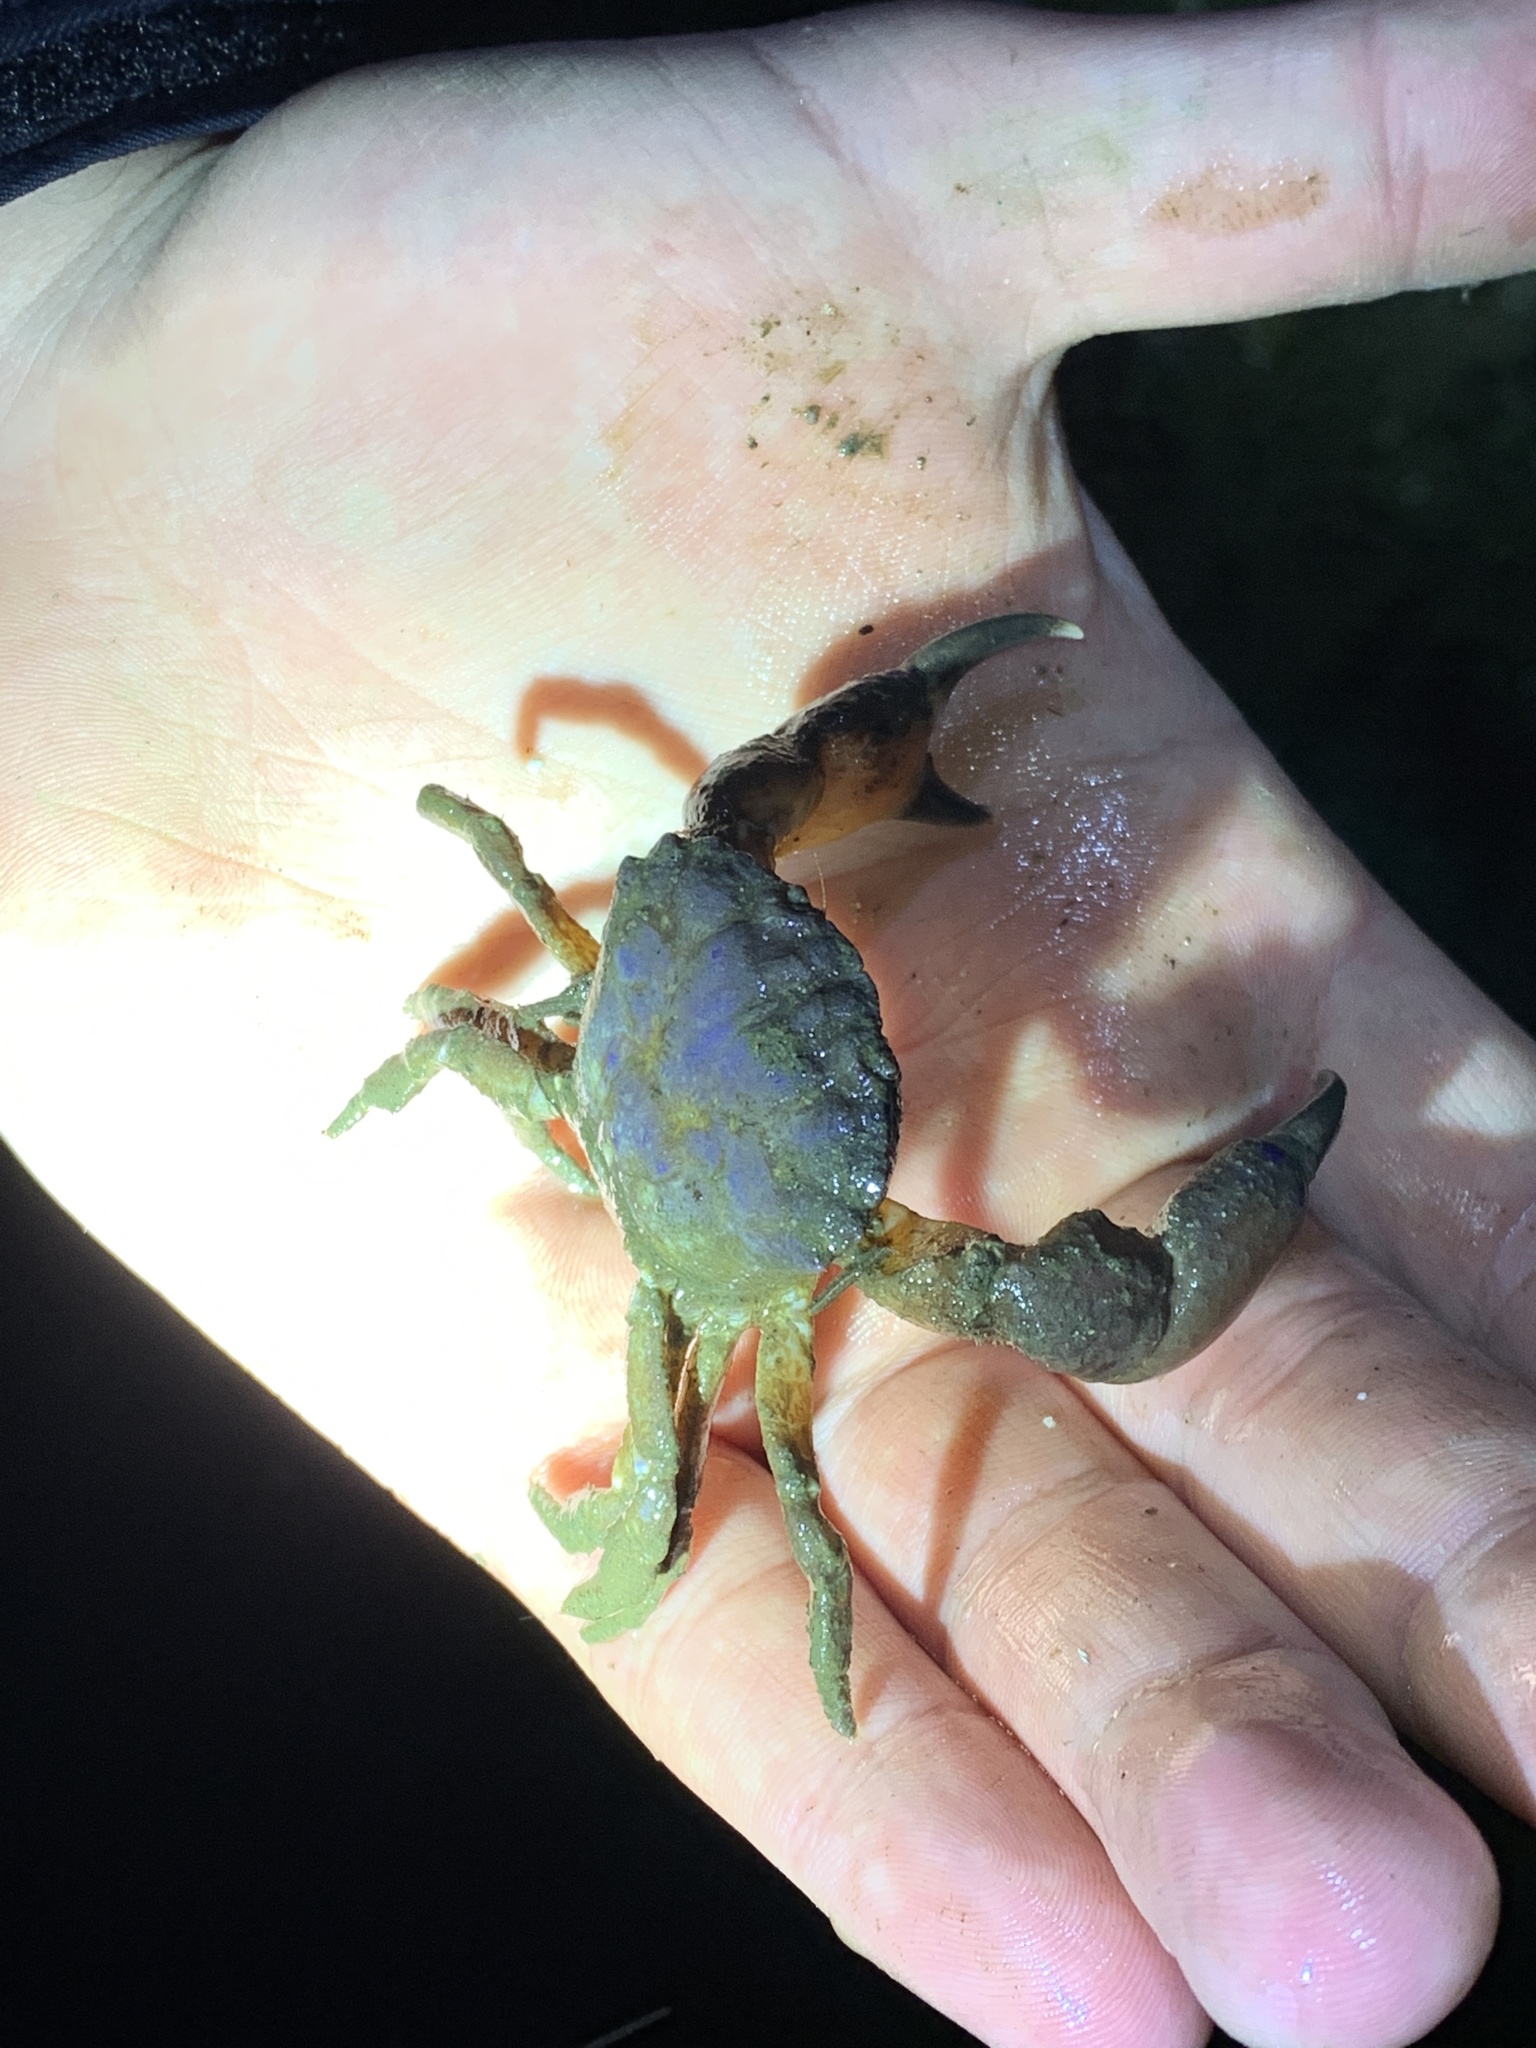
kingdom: Animalia
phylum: Arthropoda
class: Malacostraca
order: Decapoda
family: Panopeidae
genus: Lophopanopeus
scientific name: Lophopanopeus bellus
